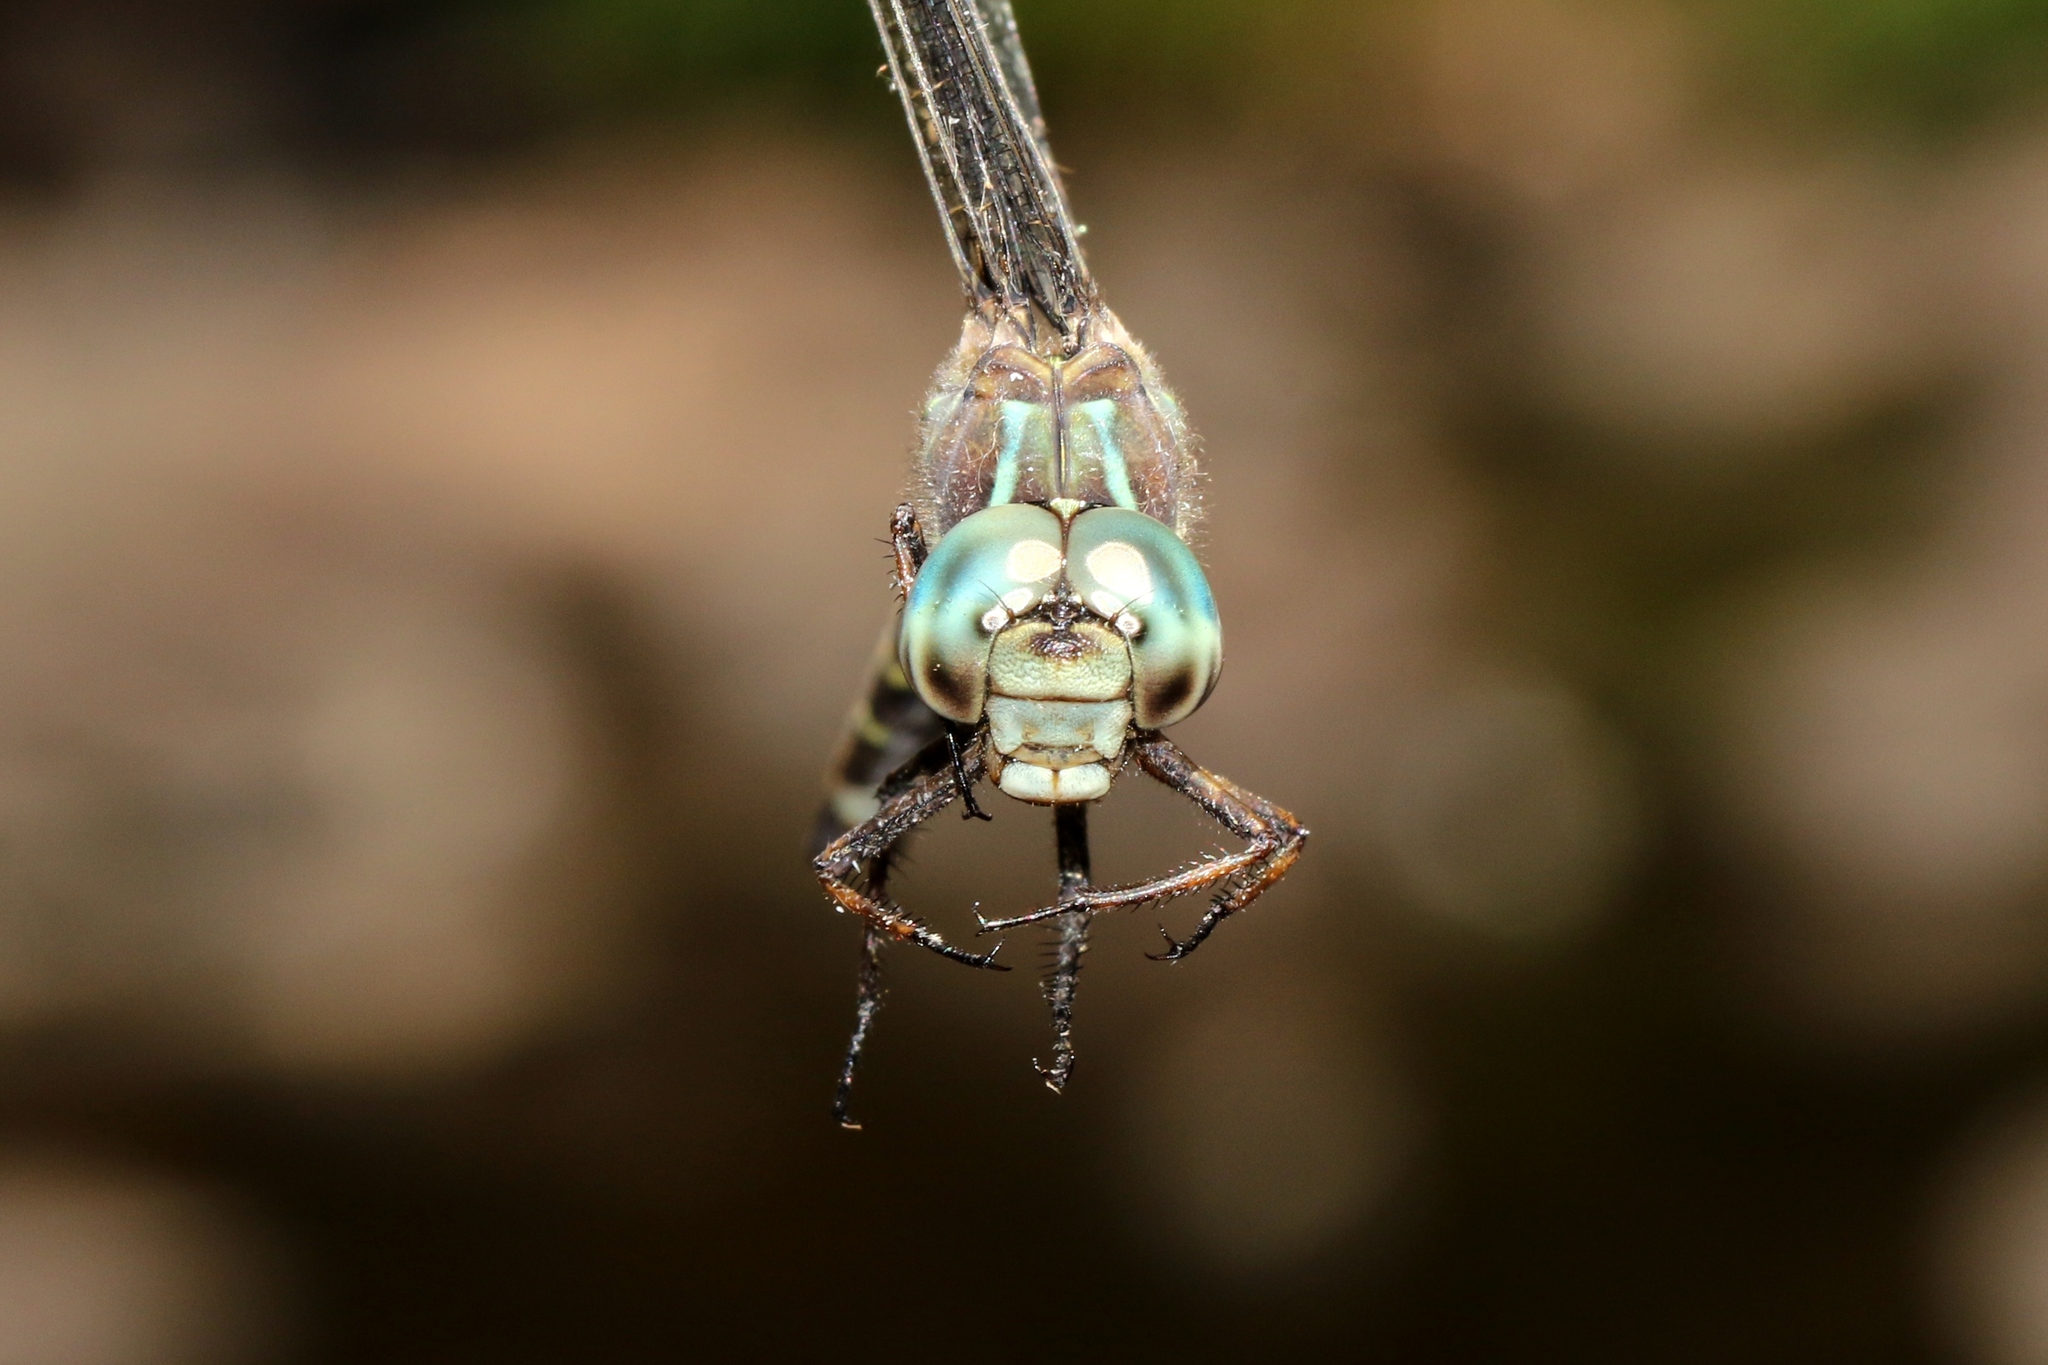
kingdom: Animalia
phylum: Arthropoda
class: Insecta
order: Odonata
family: Aeshnidae
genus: Boyeria
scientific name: Boyeria grafiana
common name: Ocellated darner
